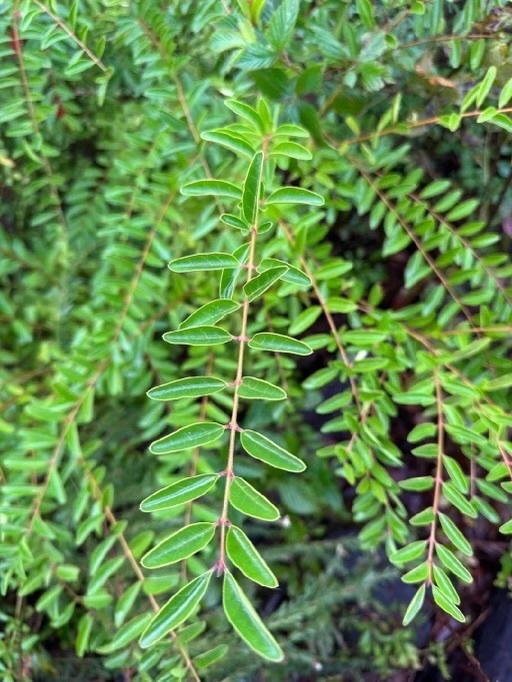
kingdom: Plantae
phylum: Tracheophyta
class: Magnoliopsida
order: Lamiales
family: Oleaceae
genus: Ligustrum
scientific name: Ligustrum sinense
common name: Chinese privet
